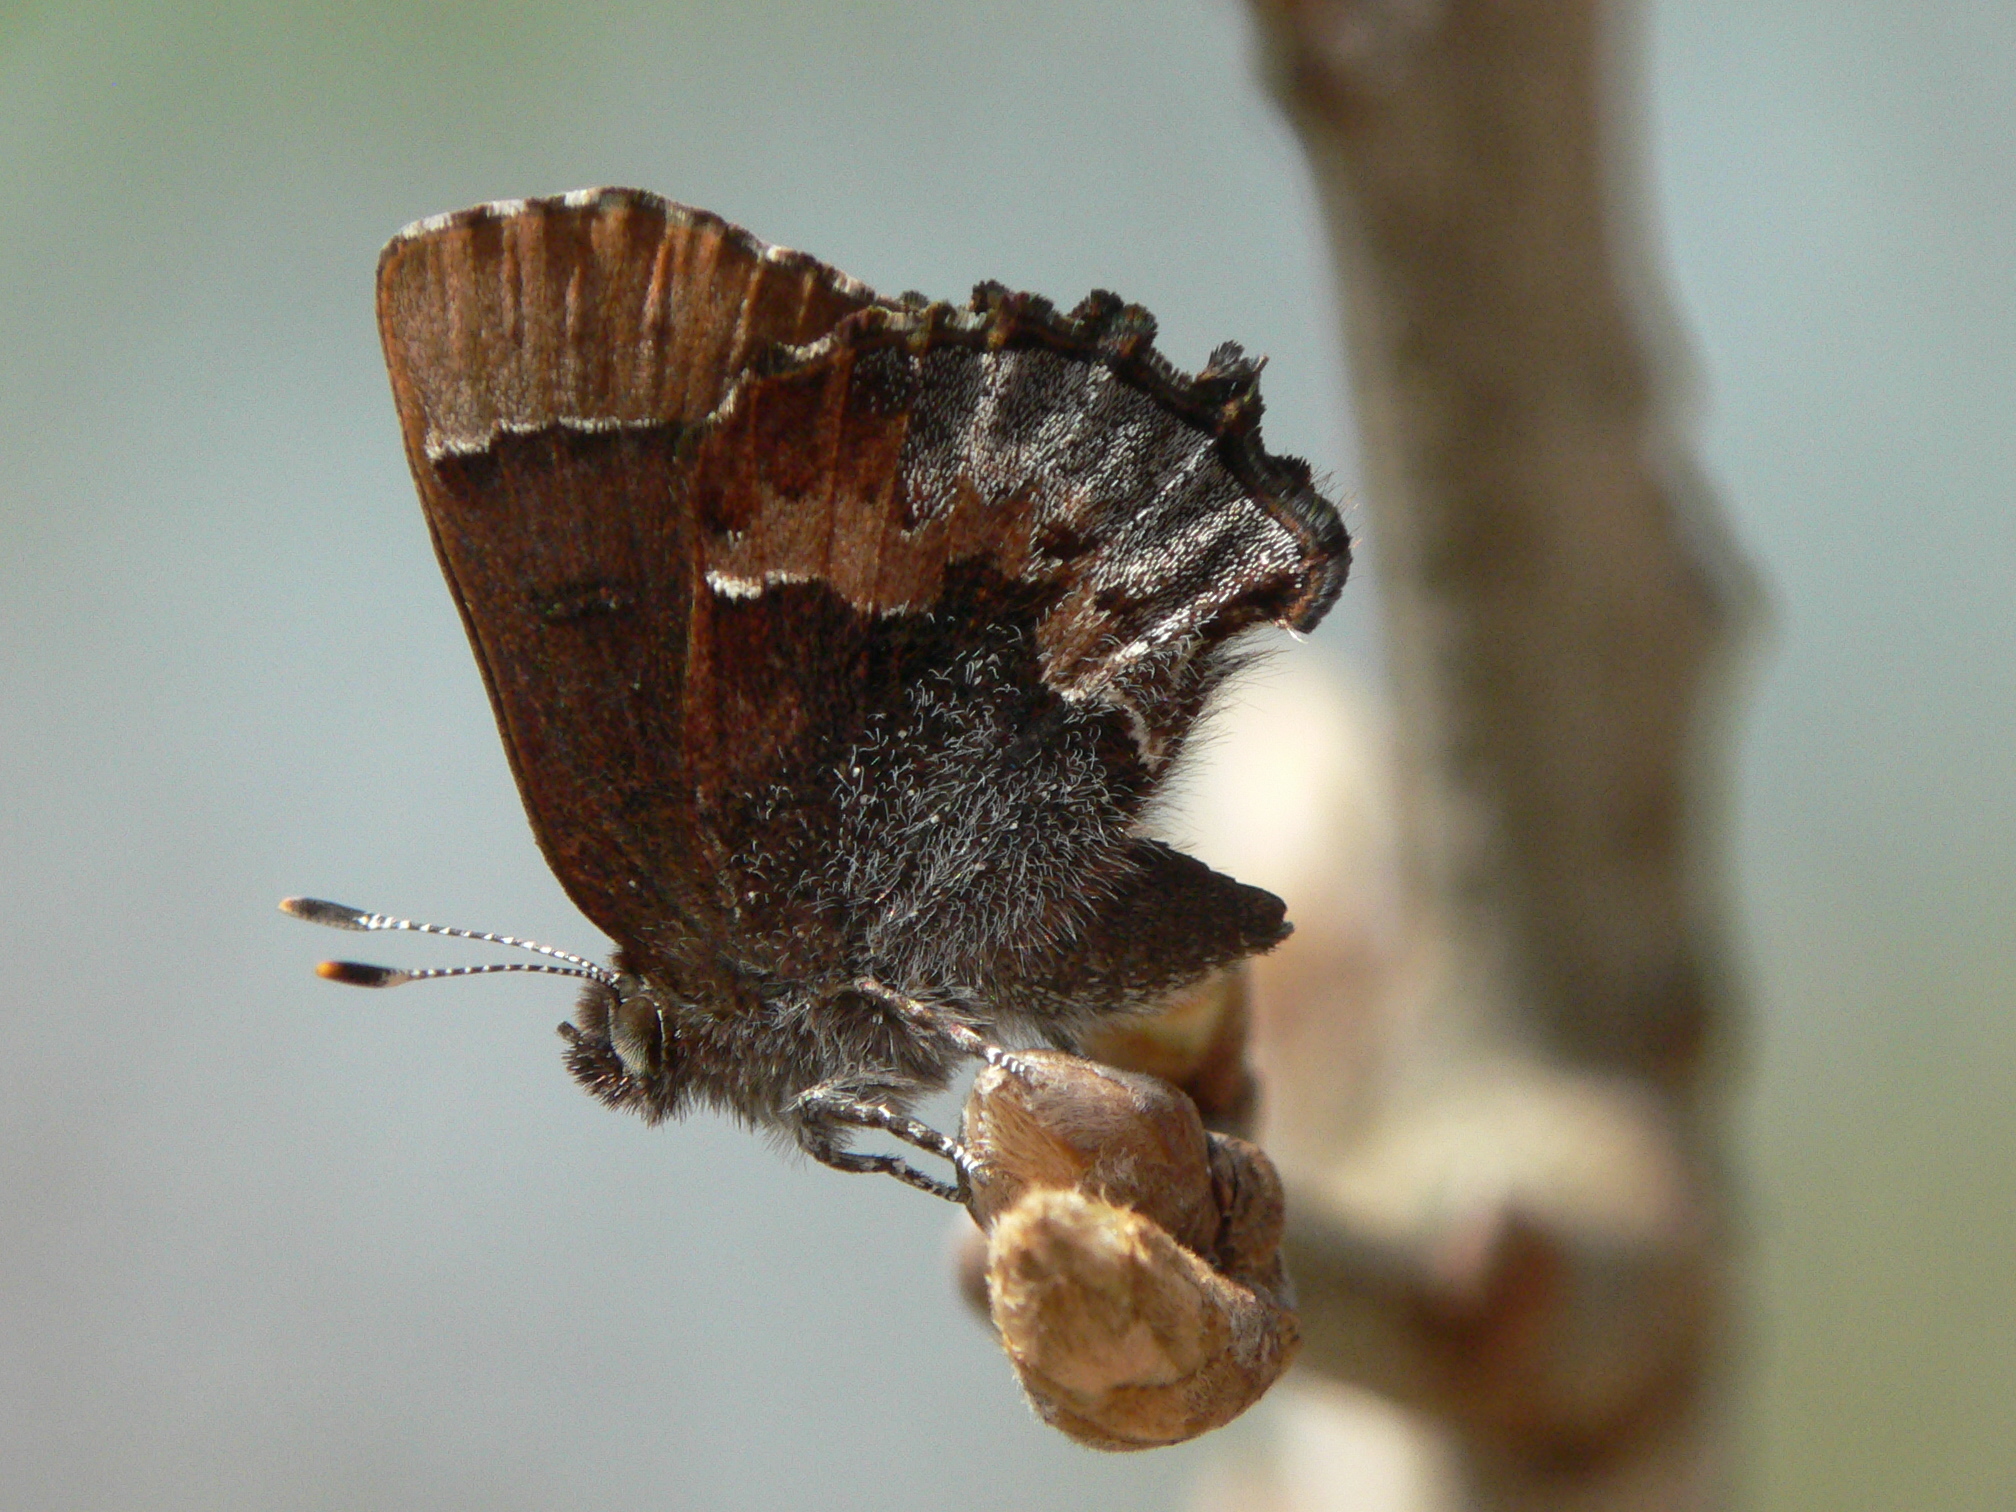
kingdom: Animalia
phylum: Arthropoda
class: Insecta
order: Lepidoptera
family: Lycaenidae
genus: Incisalia
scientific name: Incisalia henrici
